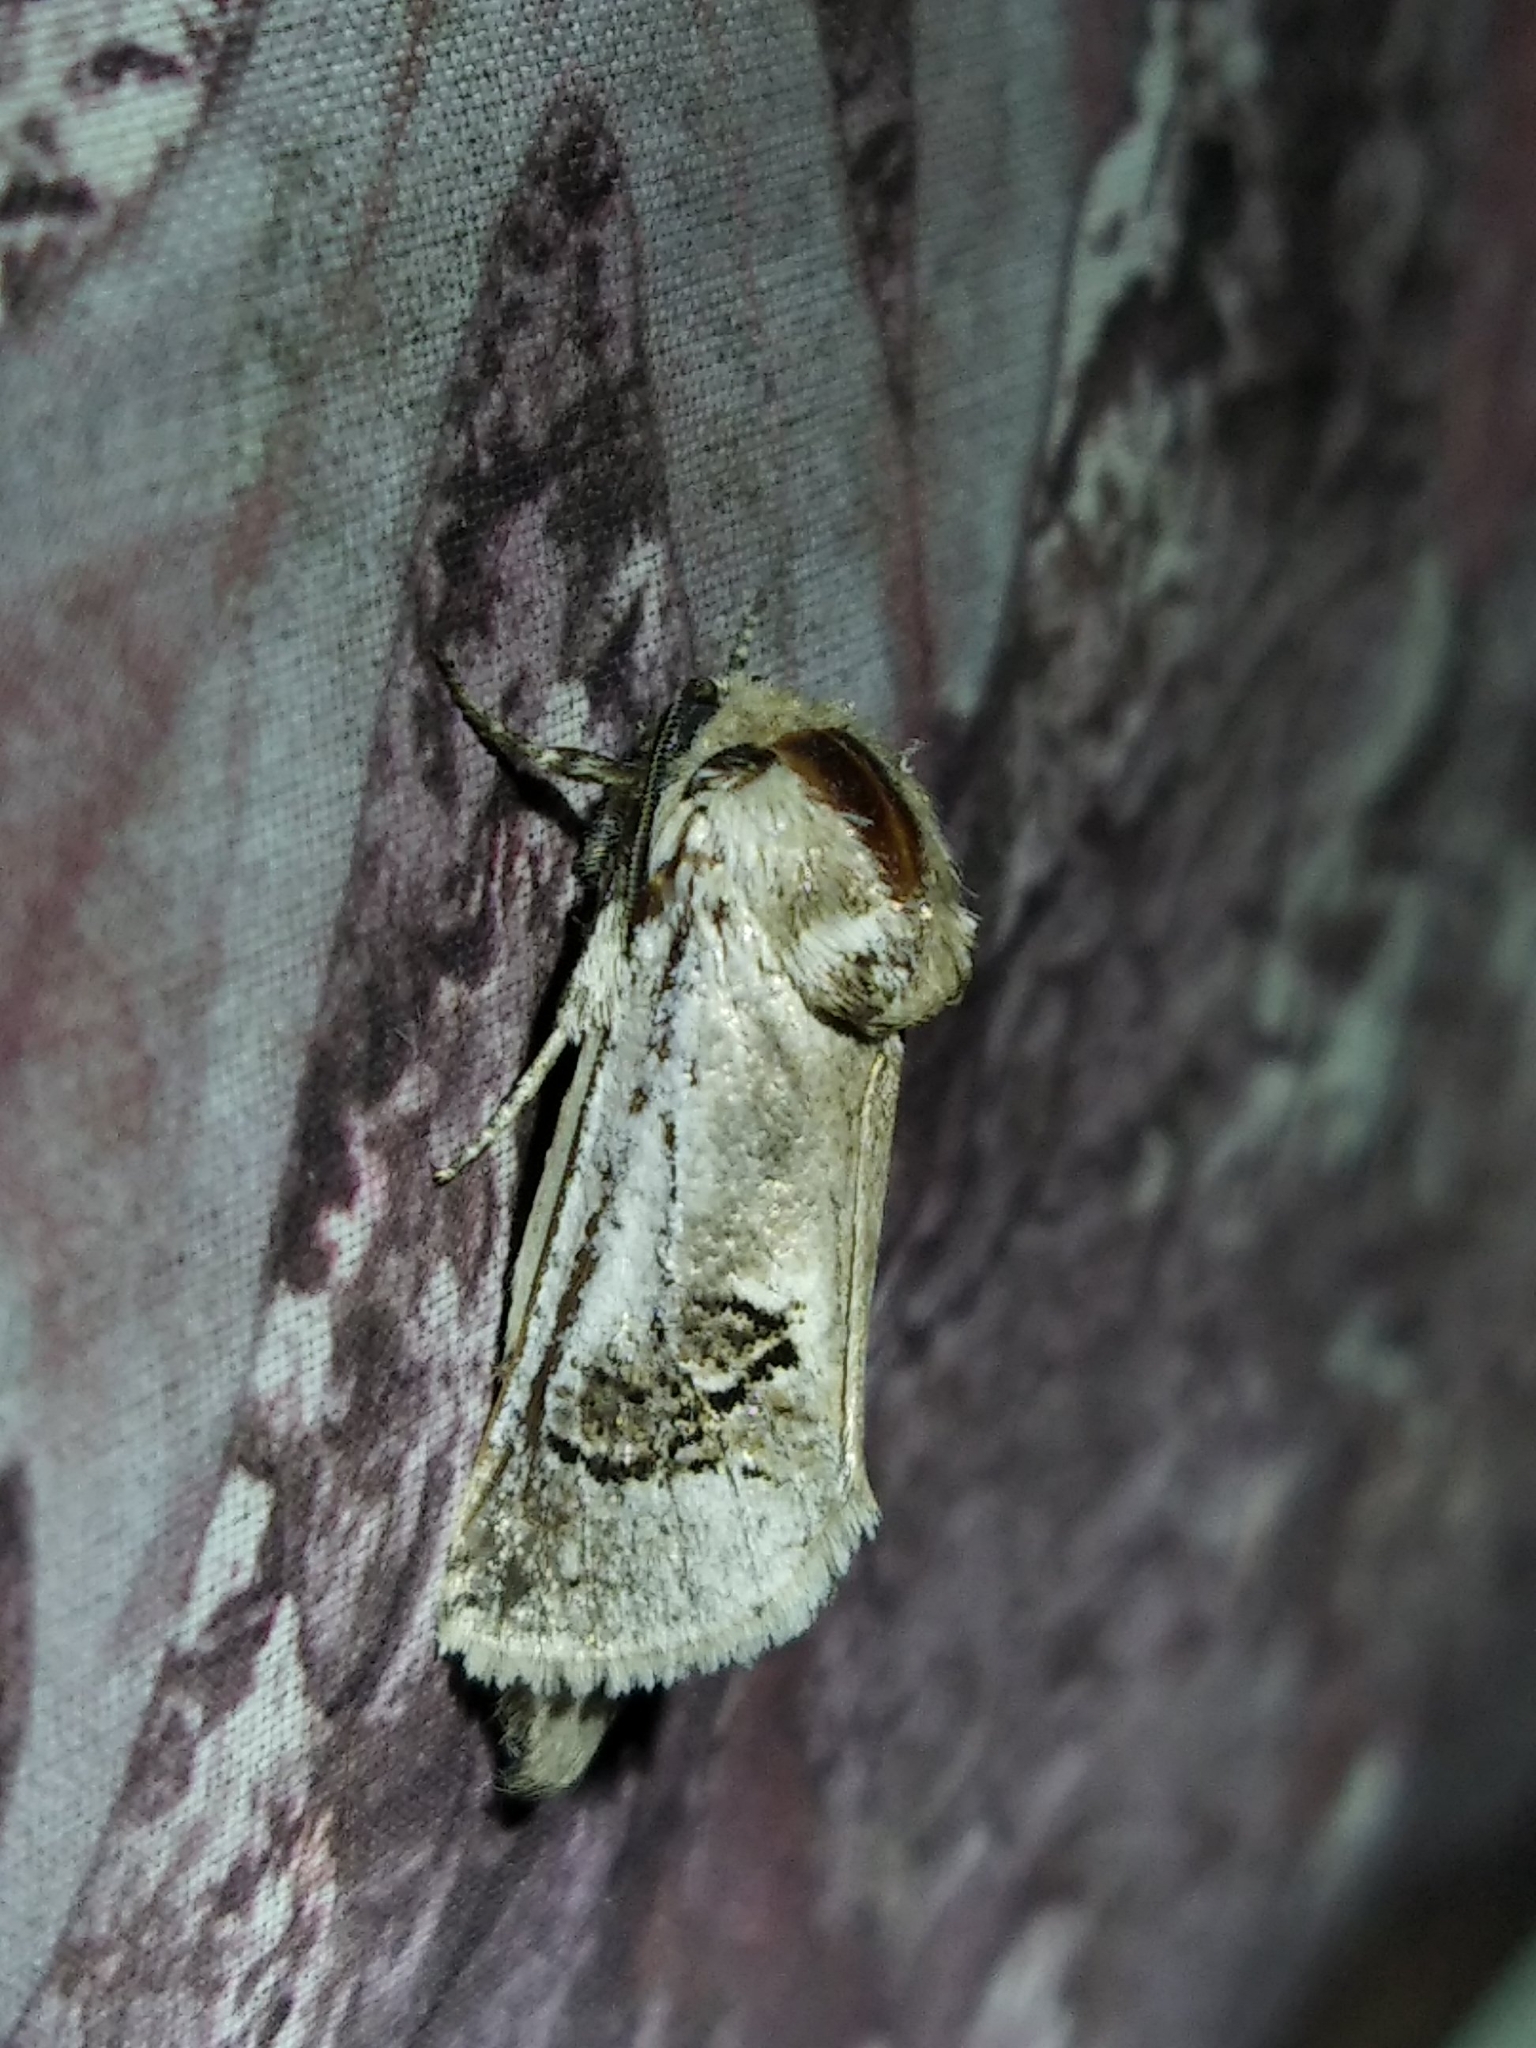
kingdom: Animalia
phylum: Arthropoda
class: Insecta
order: Lepidoptera
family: Cossidae
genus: Parahypopta
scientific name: Parahypopta caestrum
